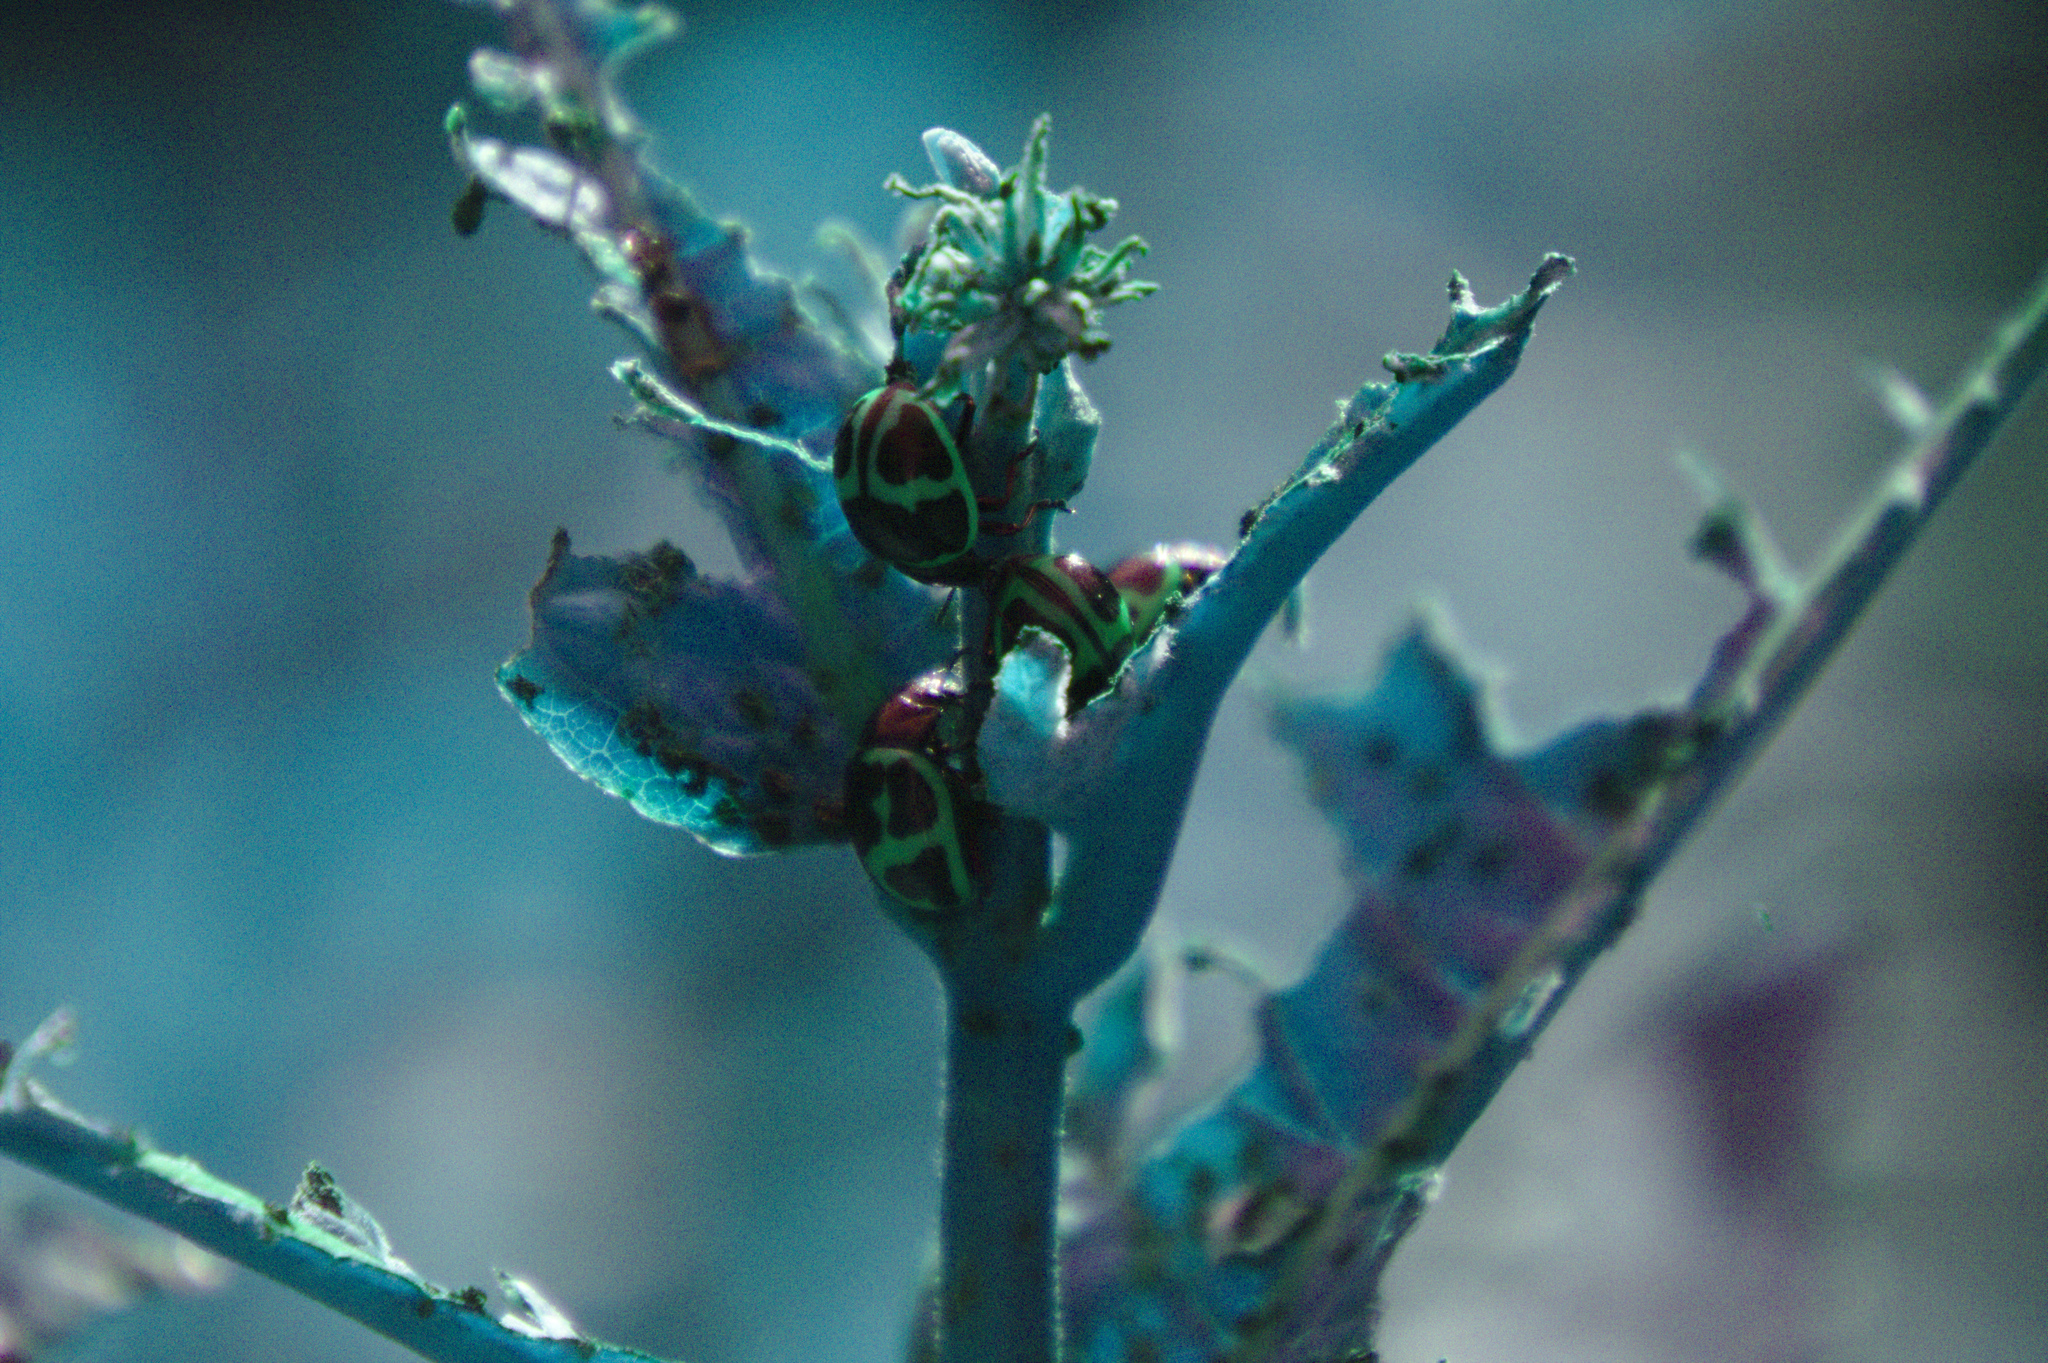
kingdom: Animalia
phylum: Arthropoda
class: Insecta
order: Coleoptera
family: Chrysomelidae
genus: Labidomera
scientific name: Labidomera clivicollis
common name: Swamp milkweed leaf beetle
